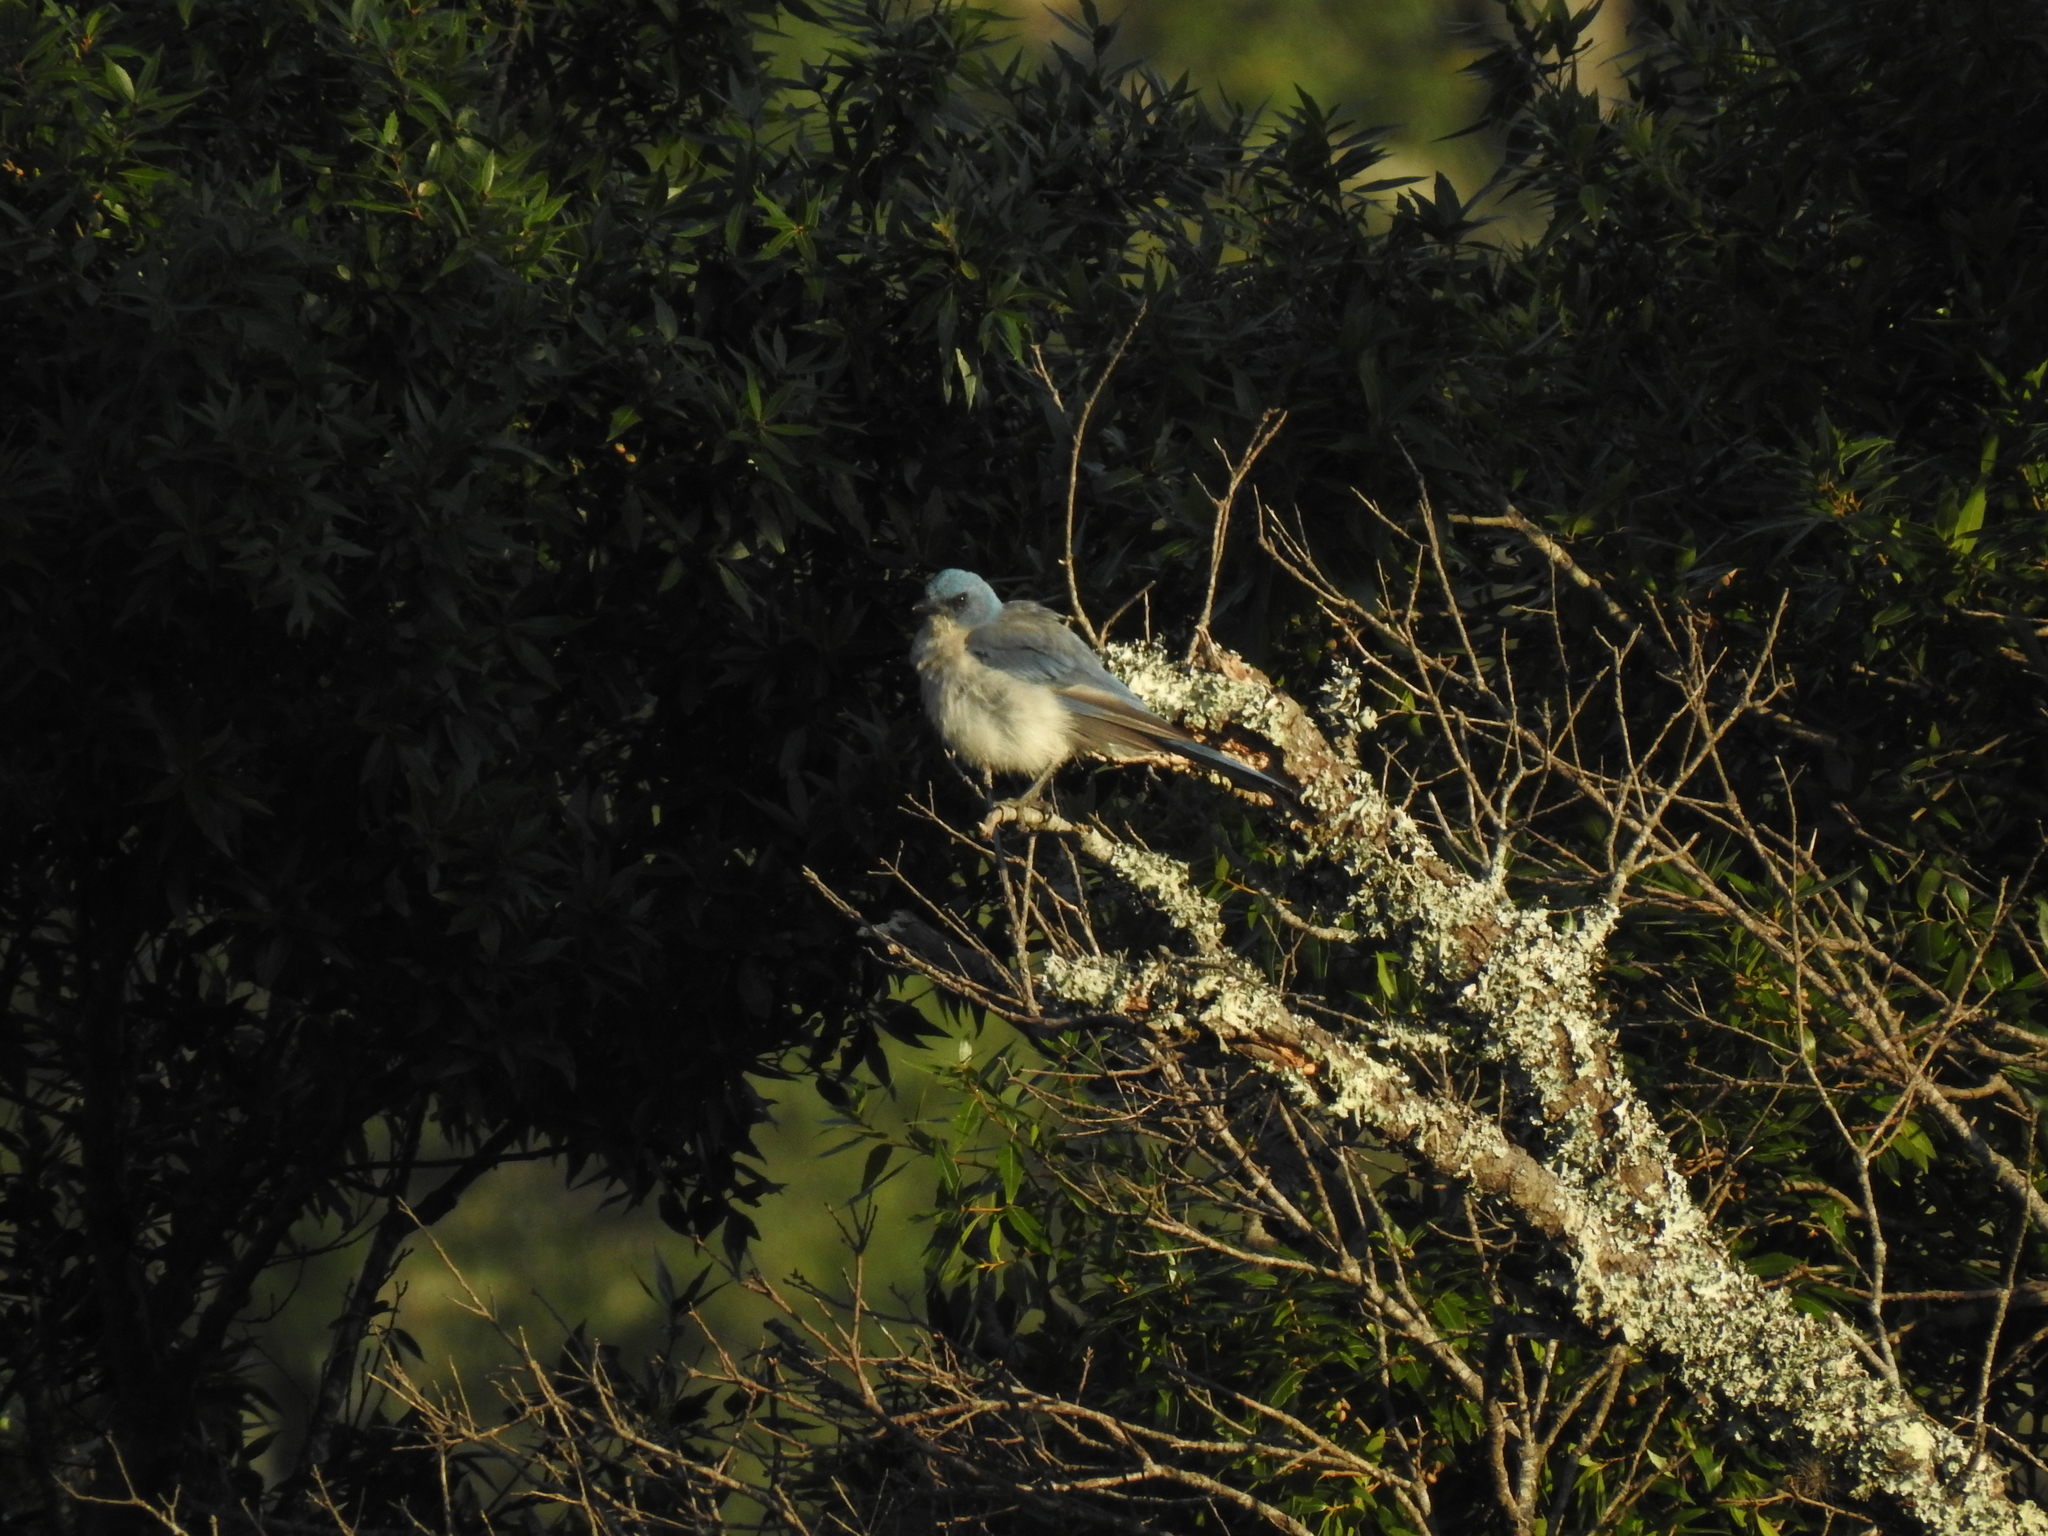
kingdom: Animalia
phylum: Chordata
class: Aves
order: Passeriformes
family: Corvidae
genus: Aphelocoma
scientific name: Aphelocoma wollweberi
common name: Mexican jay
